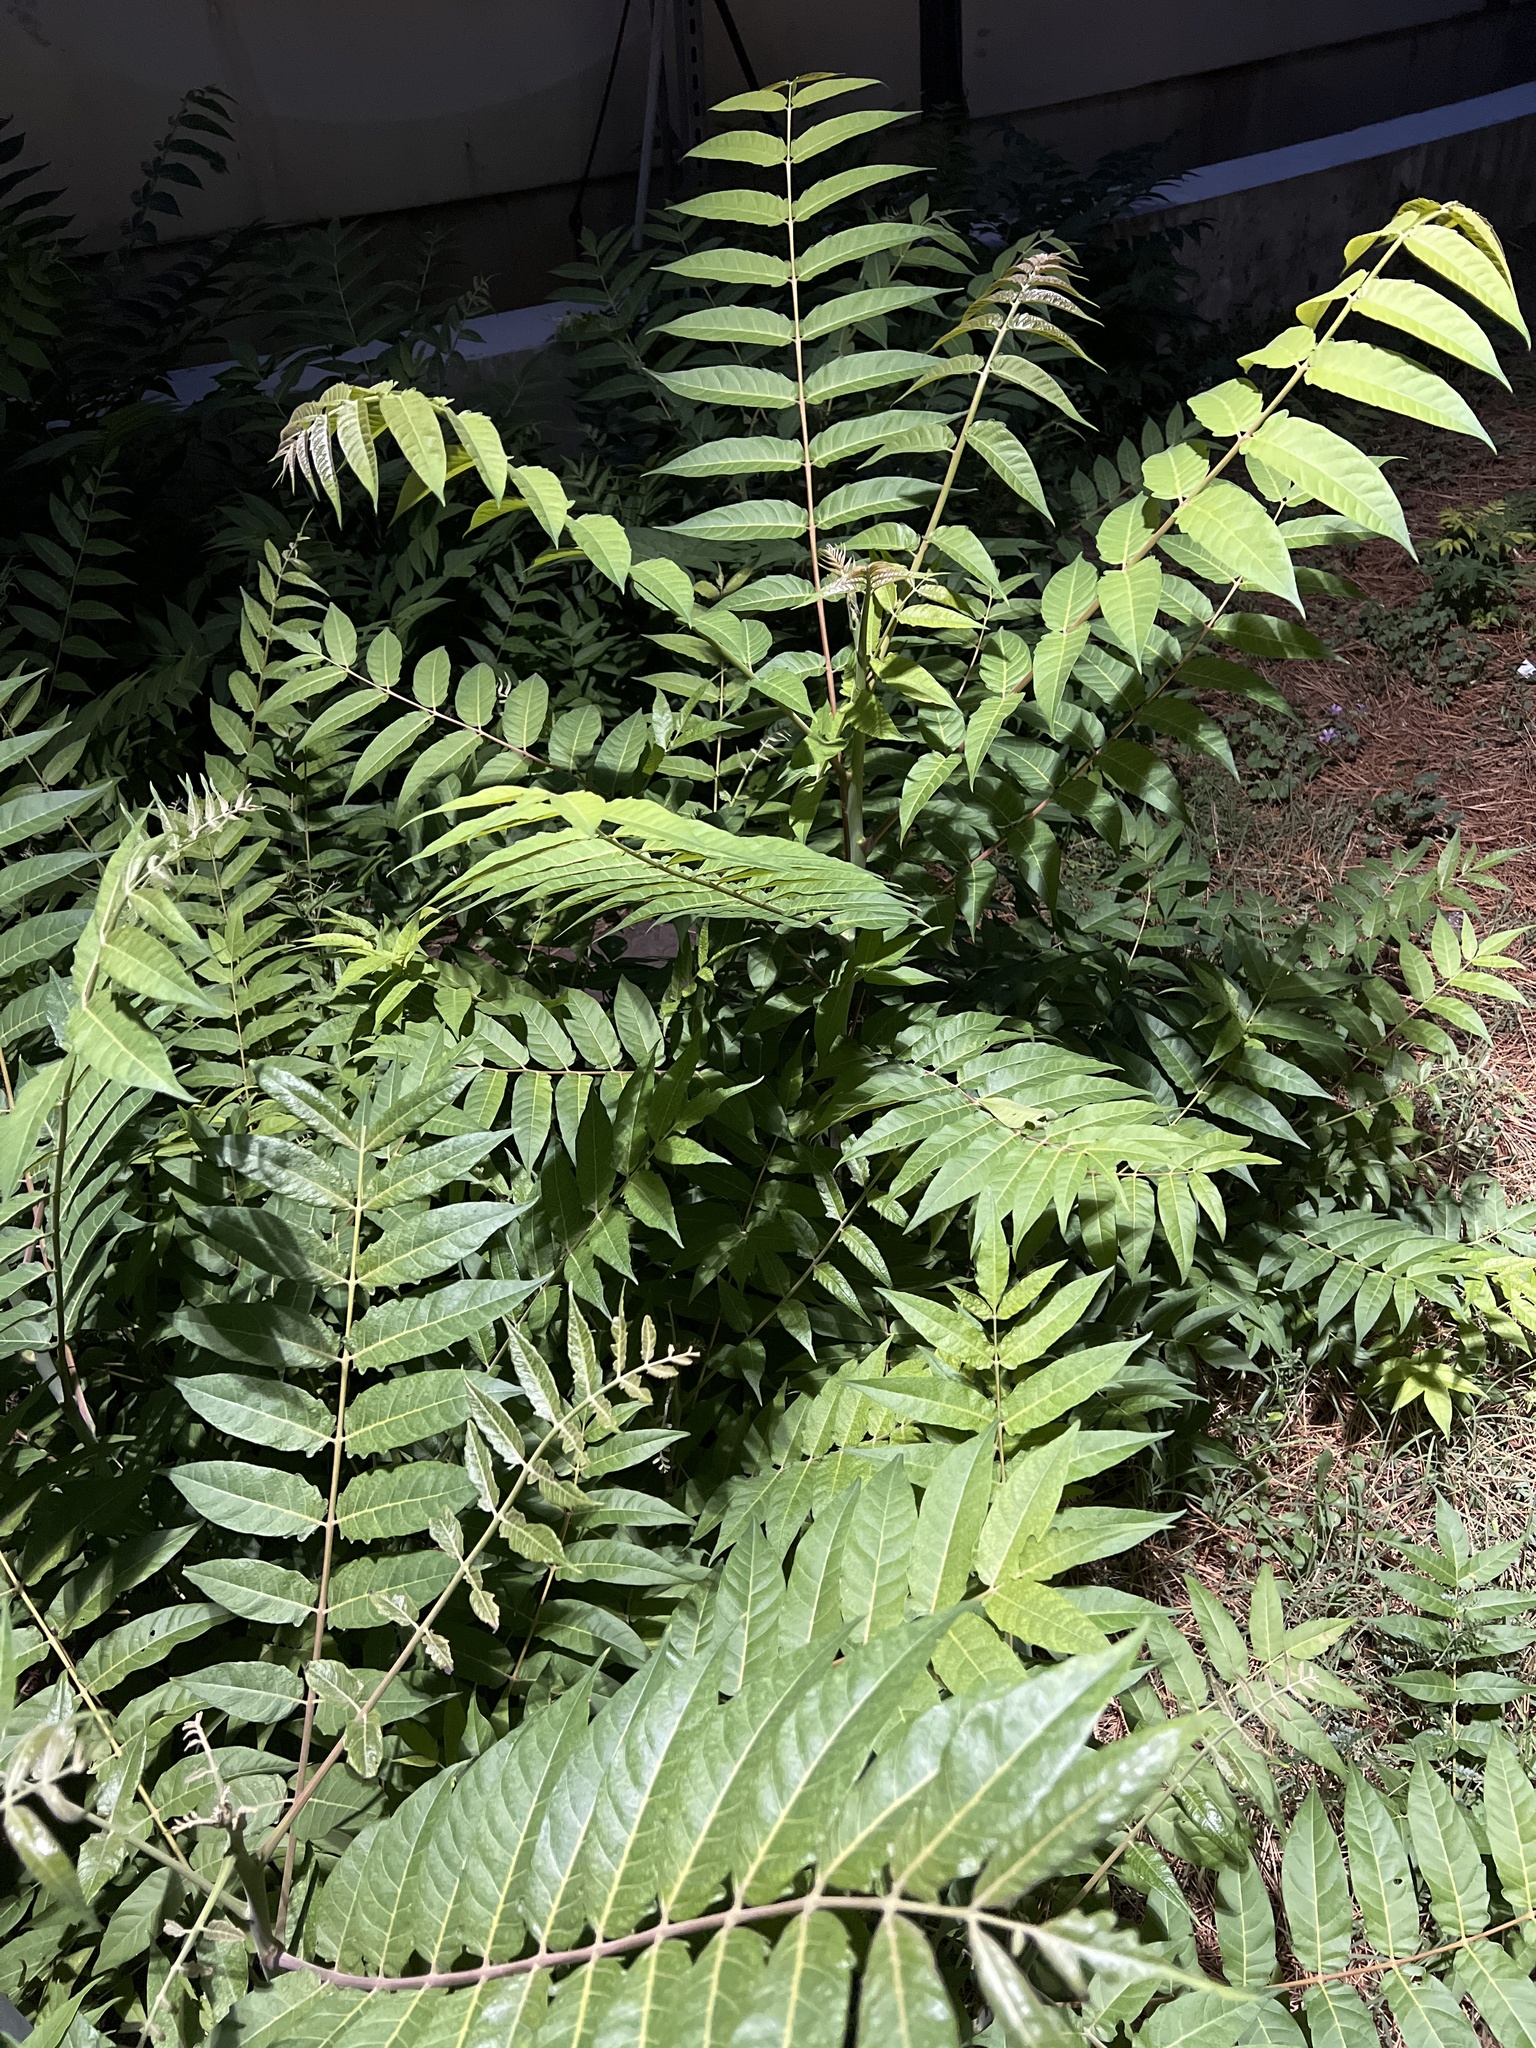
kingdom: Plantae
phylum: Tracheophyta
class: Magnoliopsida
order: Sapindales
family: Simaroubaceae
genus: Ailanthus
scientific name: Ailanthus altissima
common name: Tree-of-heaven
